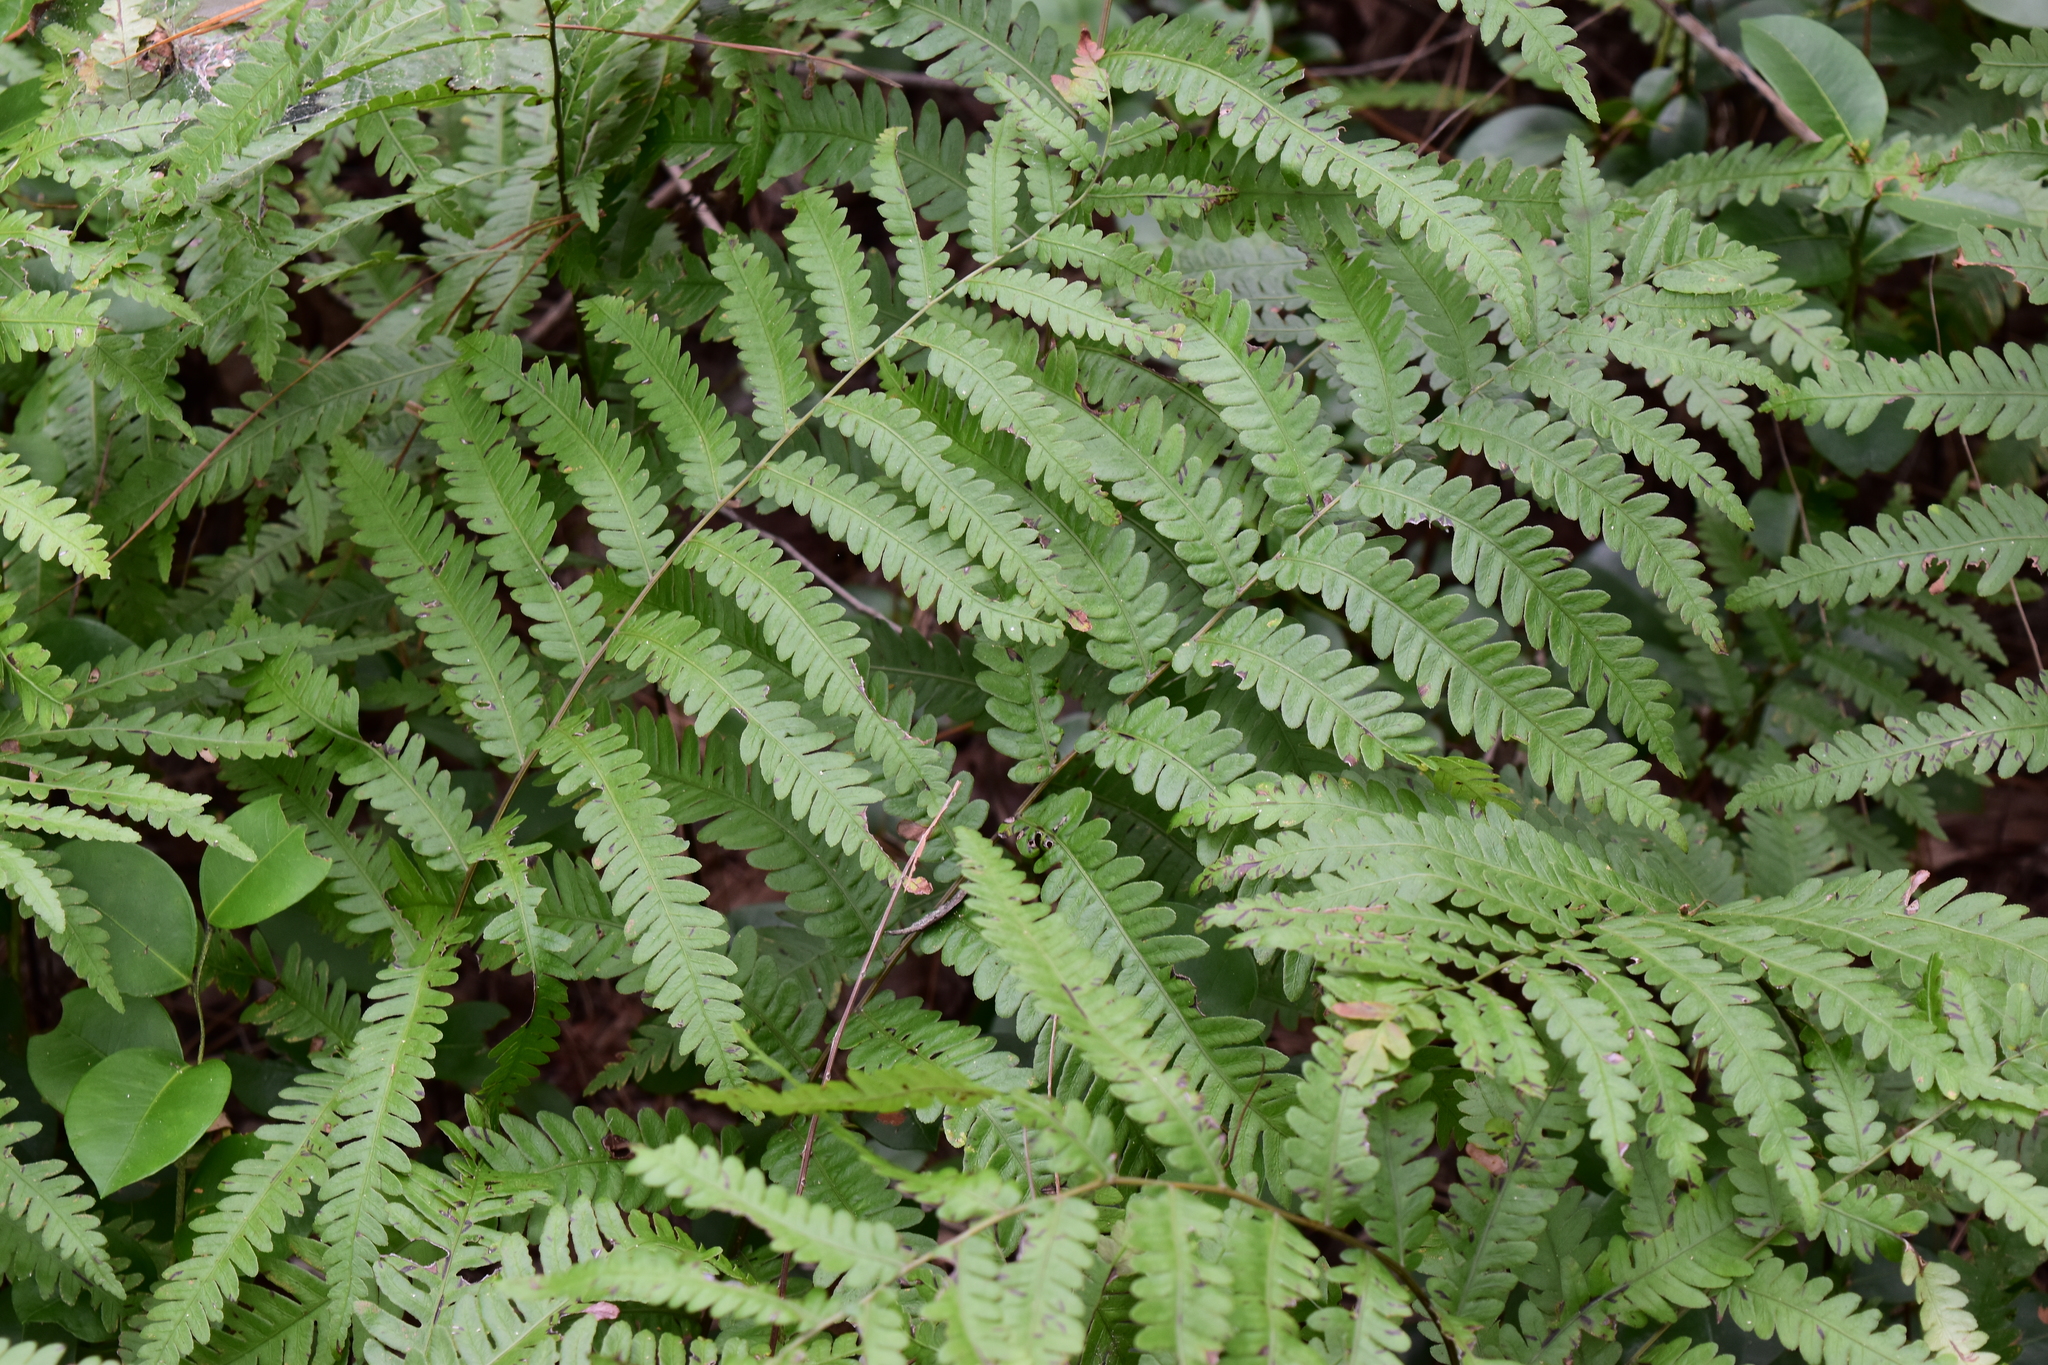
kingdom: Plantae
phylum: Tracheophyta
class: Polypodiopsida
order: Polypodiales
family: Blechnaceae
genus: Anchistea
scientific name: Anchistea virginica
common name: Virginia chain fern
